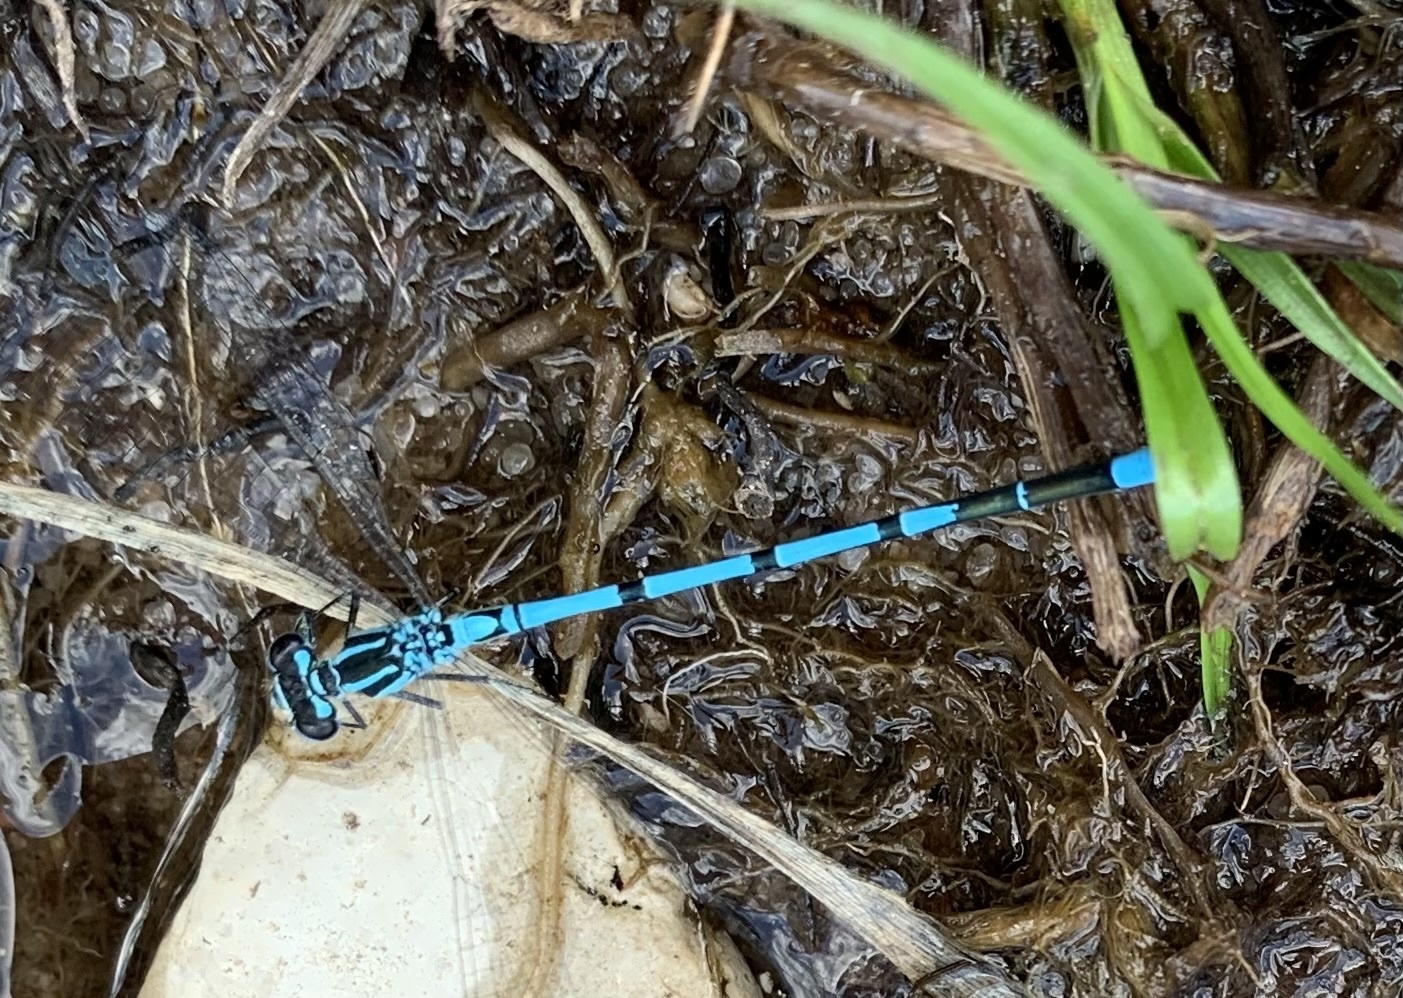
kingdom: Animalia
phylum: Arthropoda
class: Insecta
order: Odonata
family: Coenagrionidae
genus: Coenagrion
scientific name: Coenagrion puella
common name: Azure damselfly
